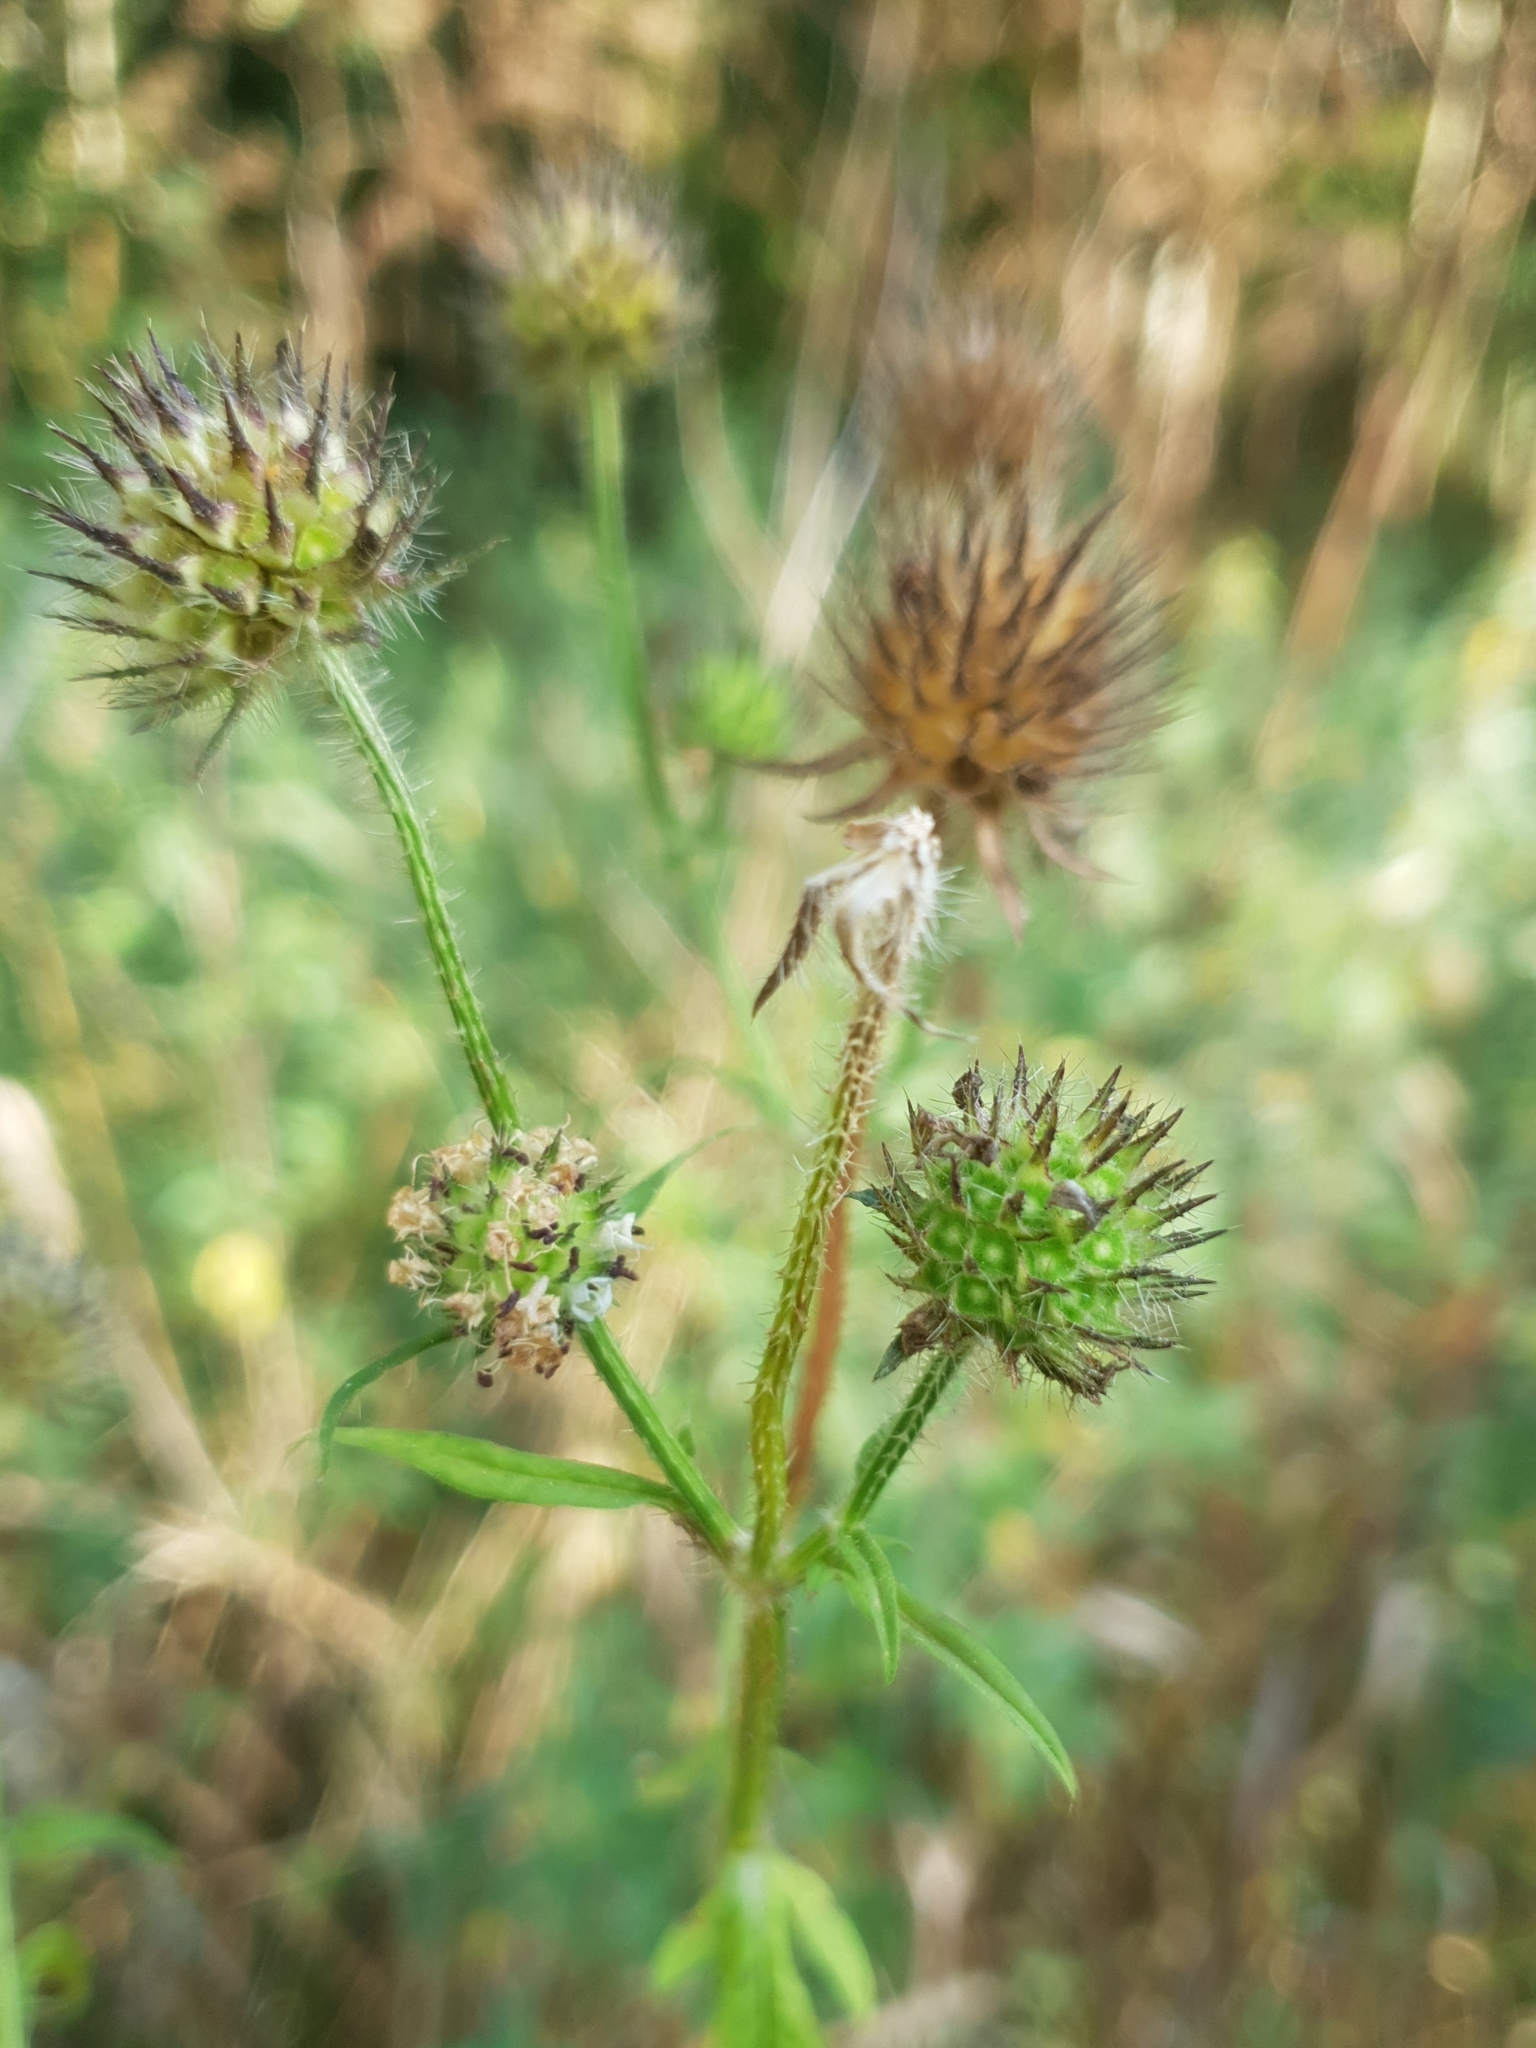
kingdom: Plantae
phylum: Tracheophyta
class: Magnoliopsida
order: Dipsacales
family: Caprifoliaceae
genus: Dipsacus
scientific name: Dipsacus pilosus
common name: Small teasel
